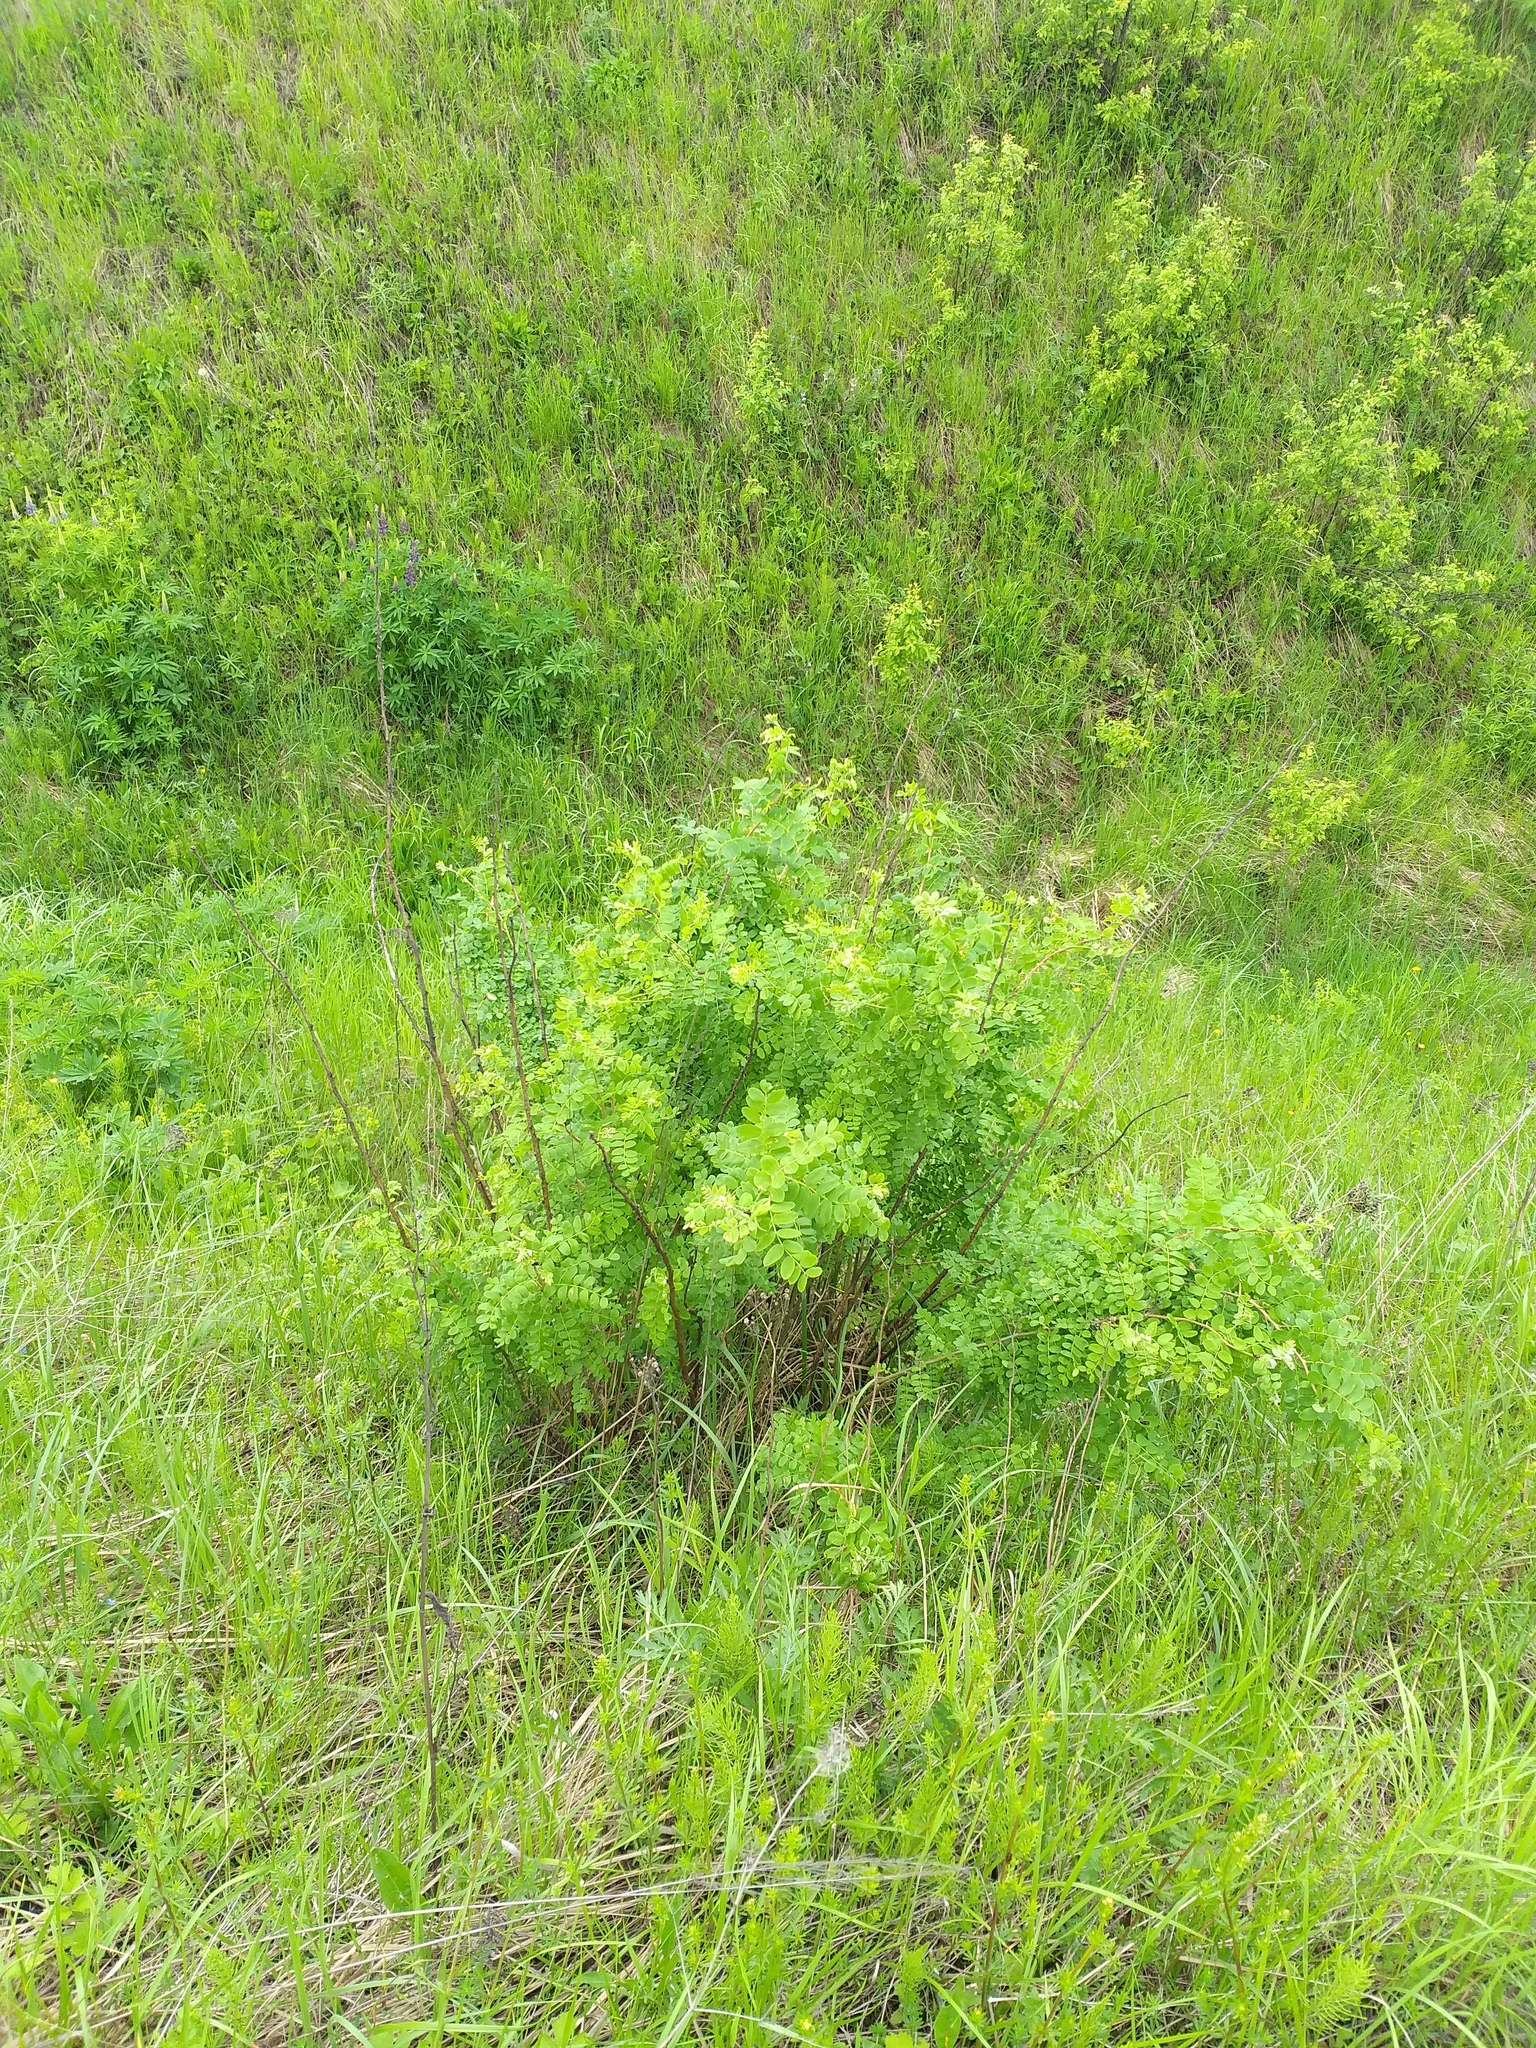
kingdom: Plantae
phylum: Tracheophyta
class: Magnoliopsida
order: Fabales
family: Fabaceae
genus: Caragana
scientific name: Caragana arborescens
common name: Siberian peashrub
